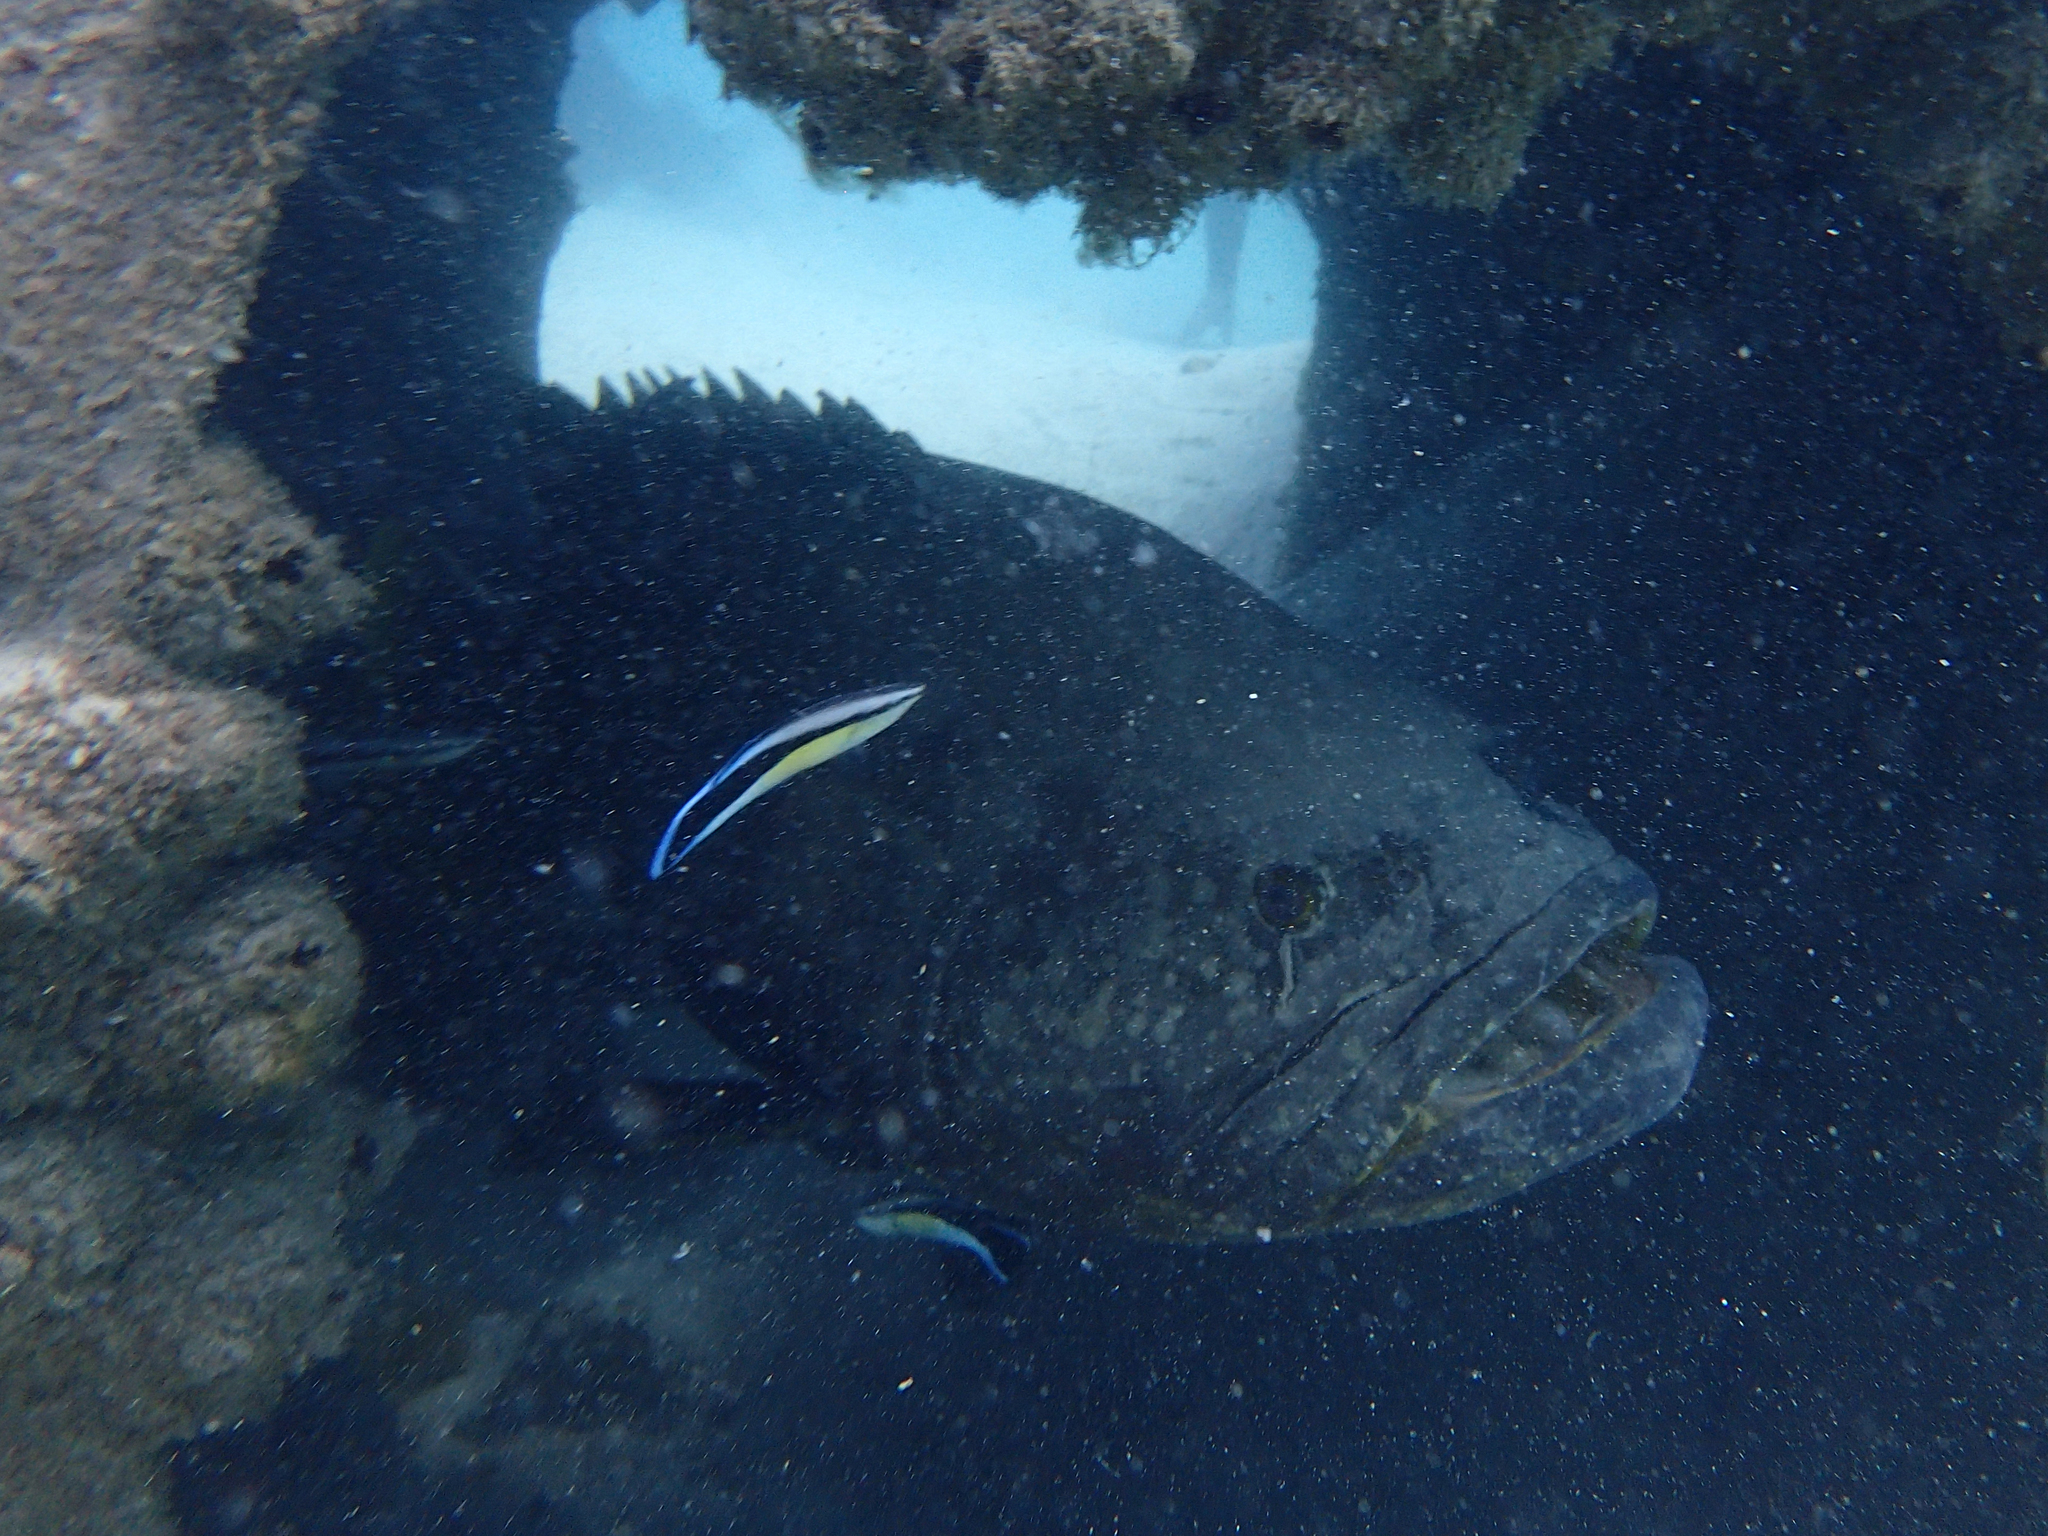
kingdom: Animalia
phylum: Chordata
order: Perciformes
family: Serranidae
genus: Epinephelus
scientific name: Epinephelus lanceolatus
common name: Giant grouper
